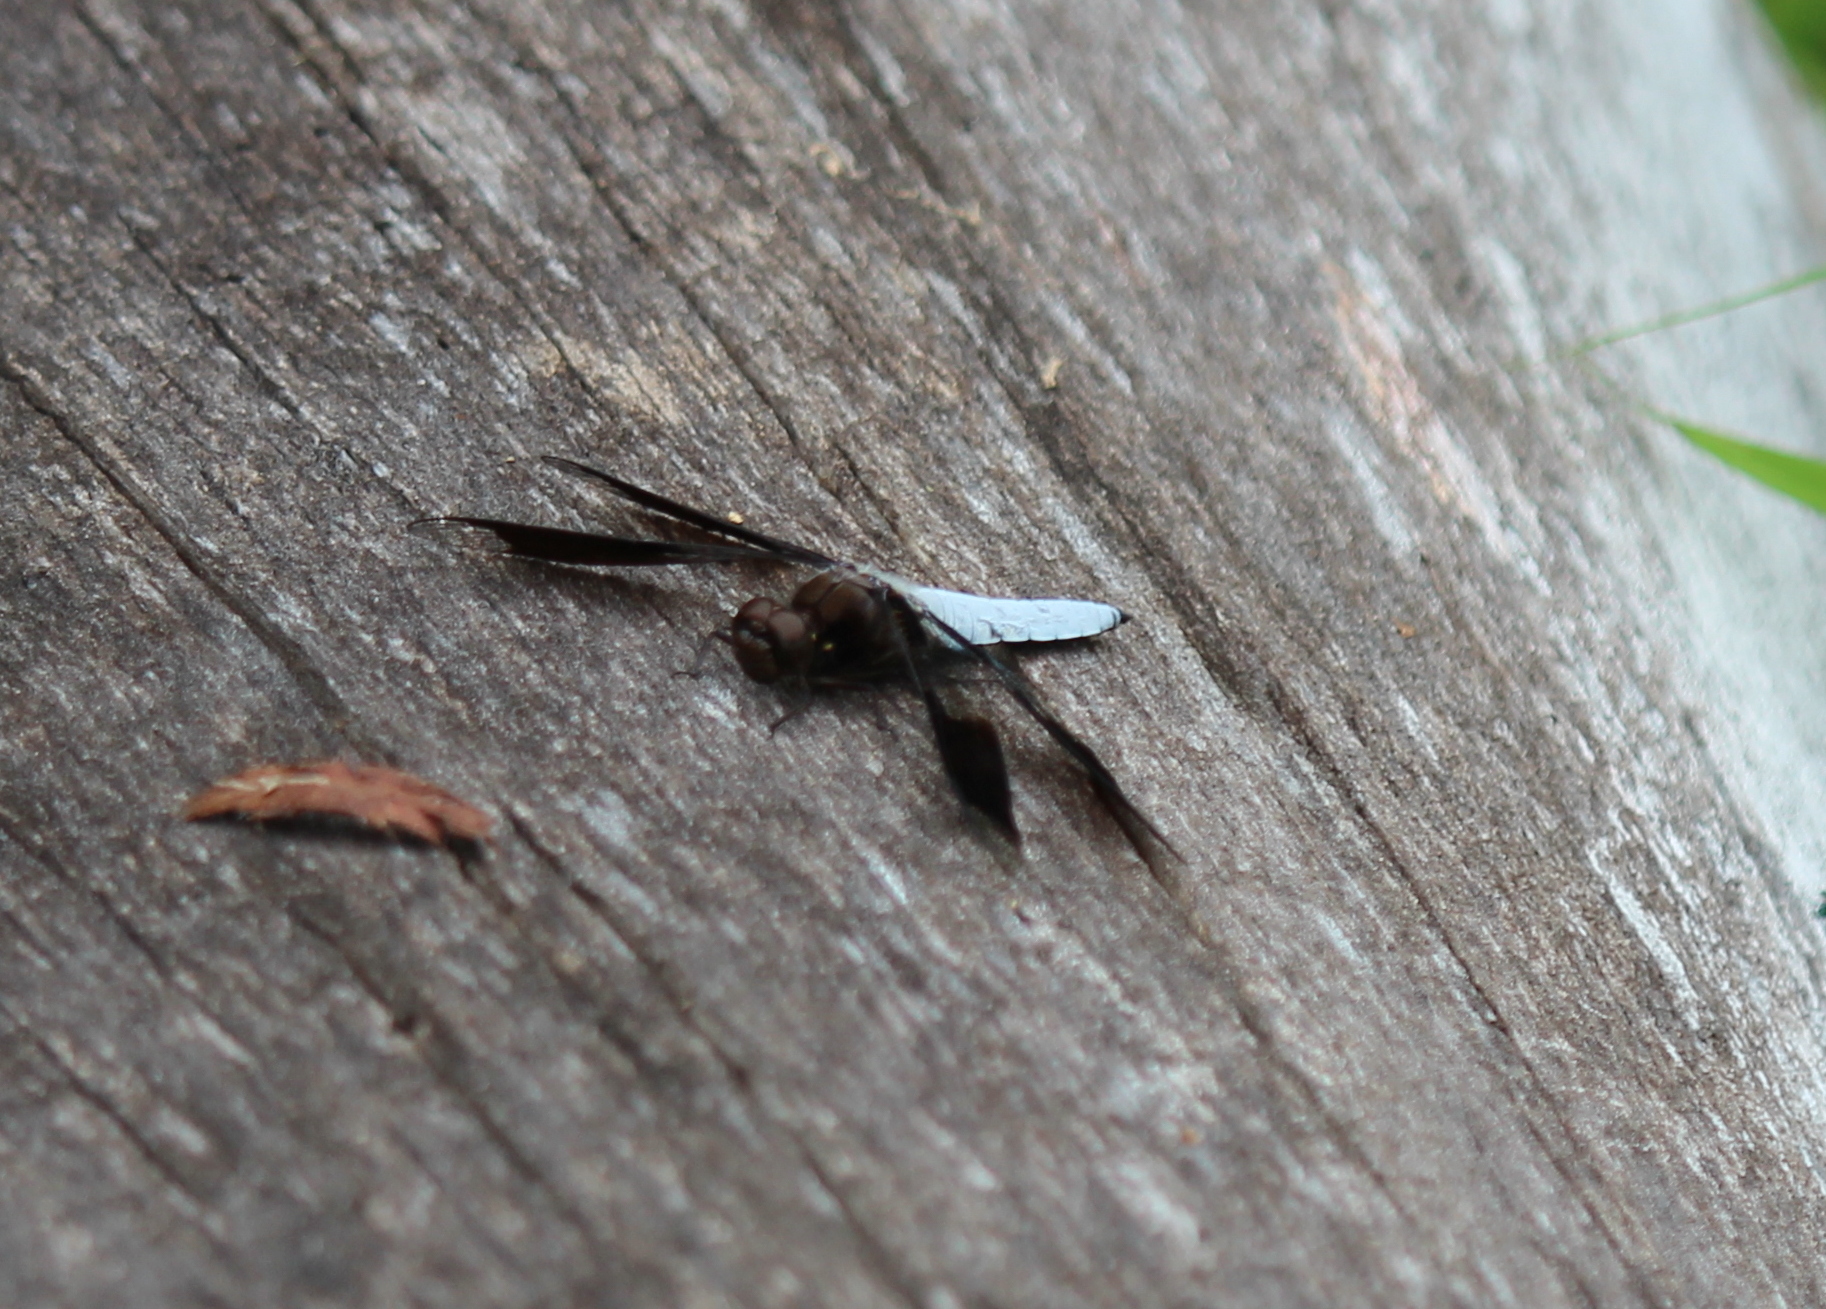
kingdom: Animalia
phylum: Arthropoda
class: Insecta
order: Odonata
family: Libellulidae
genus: Plathemis
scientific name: Plathemis lydia
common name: Common whitetail
